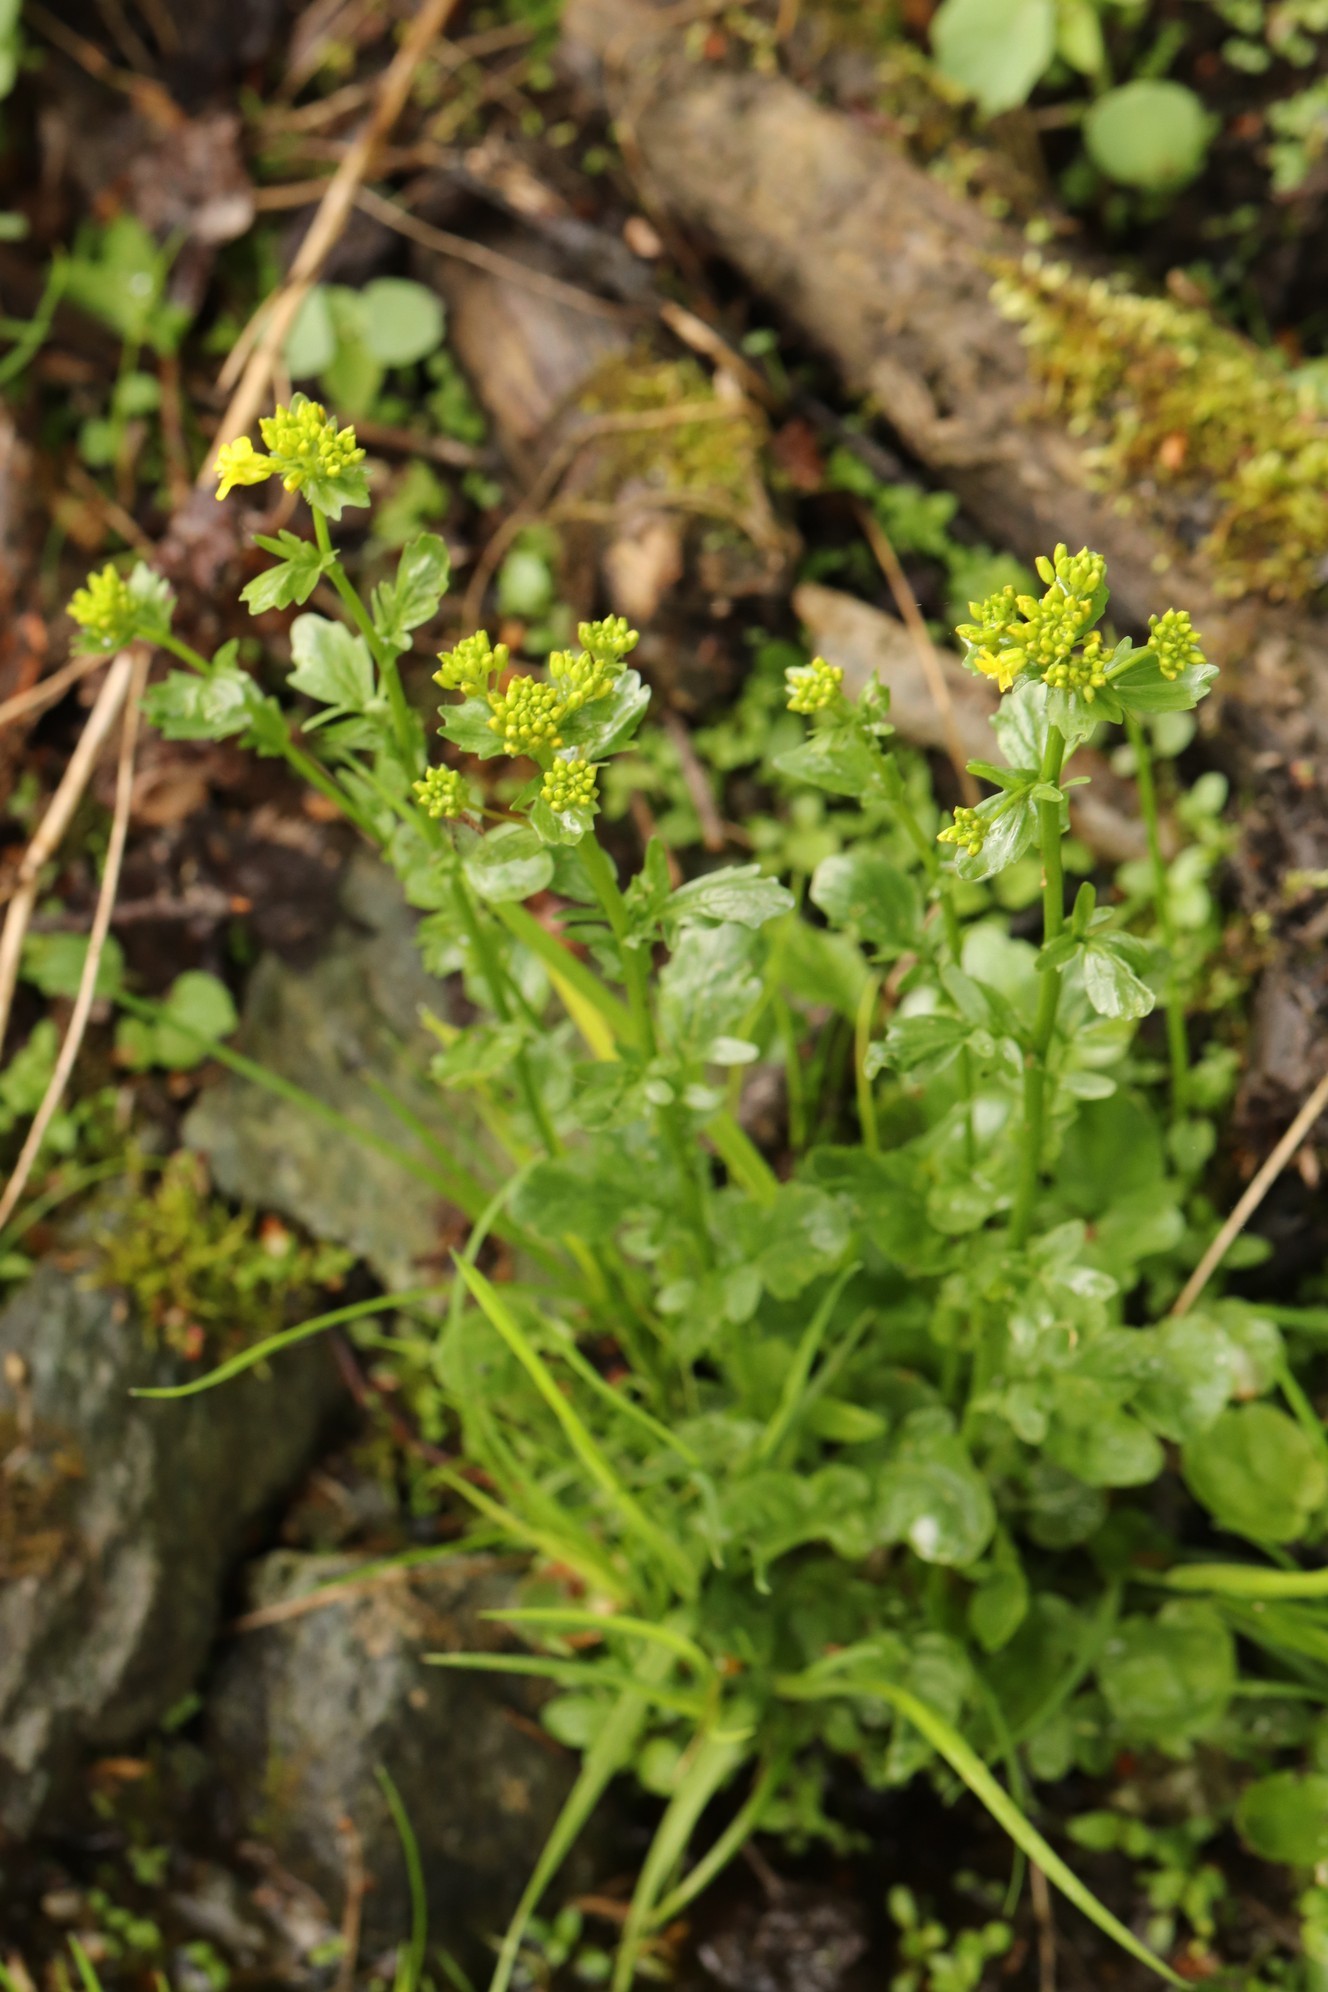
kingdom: Plantae
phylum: Tracheophyta
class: Magnoliopsida
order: Brassicales
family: Brassicaceae
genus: Barbarea
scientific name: Barbarea vulgaris
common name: Cressy-greens
